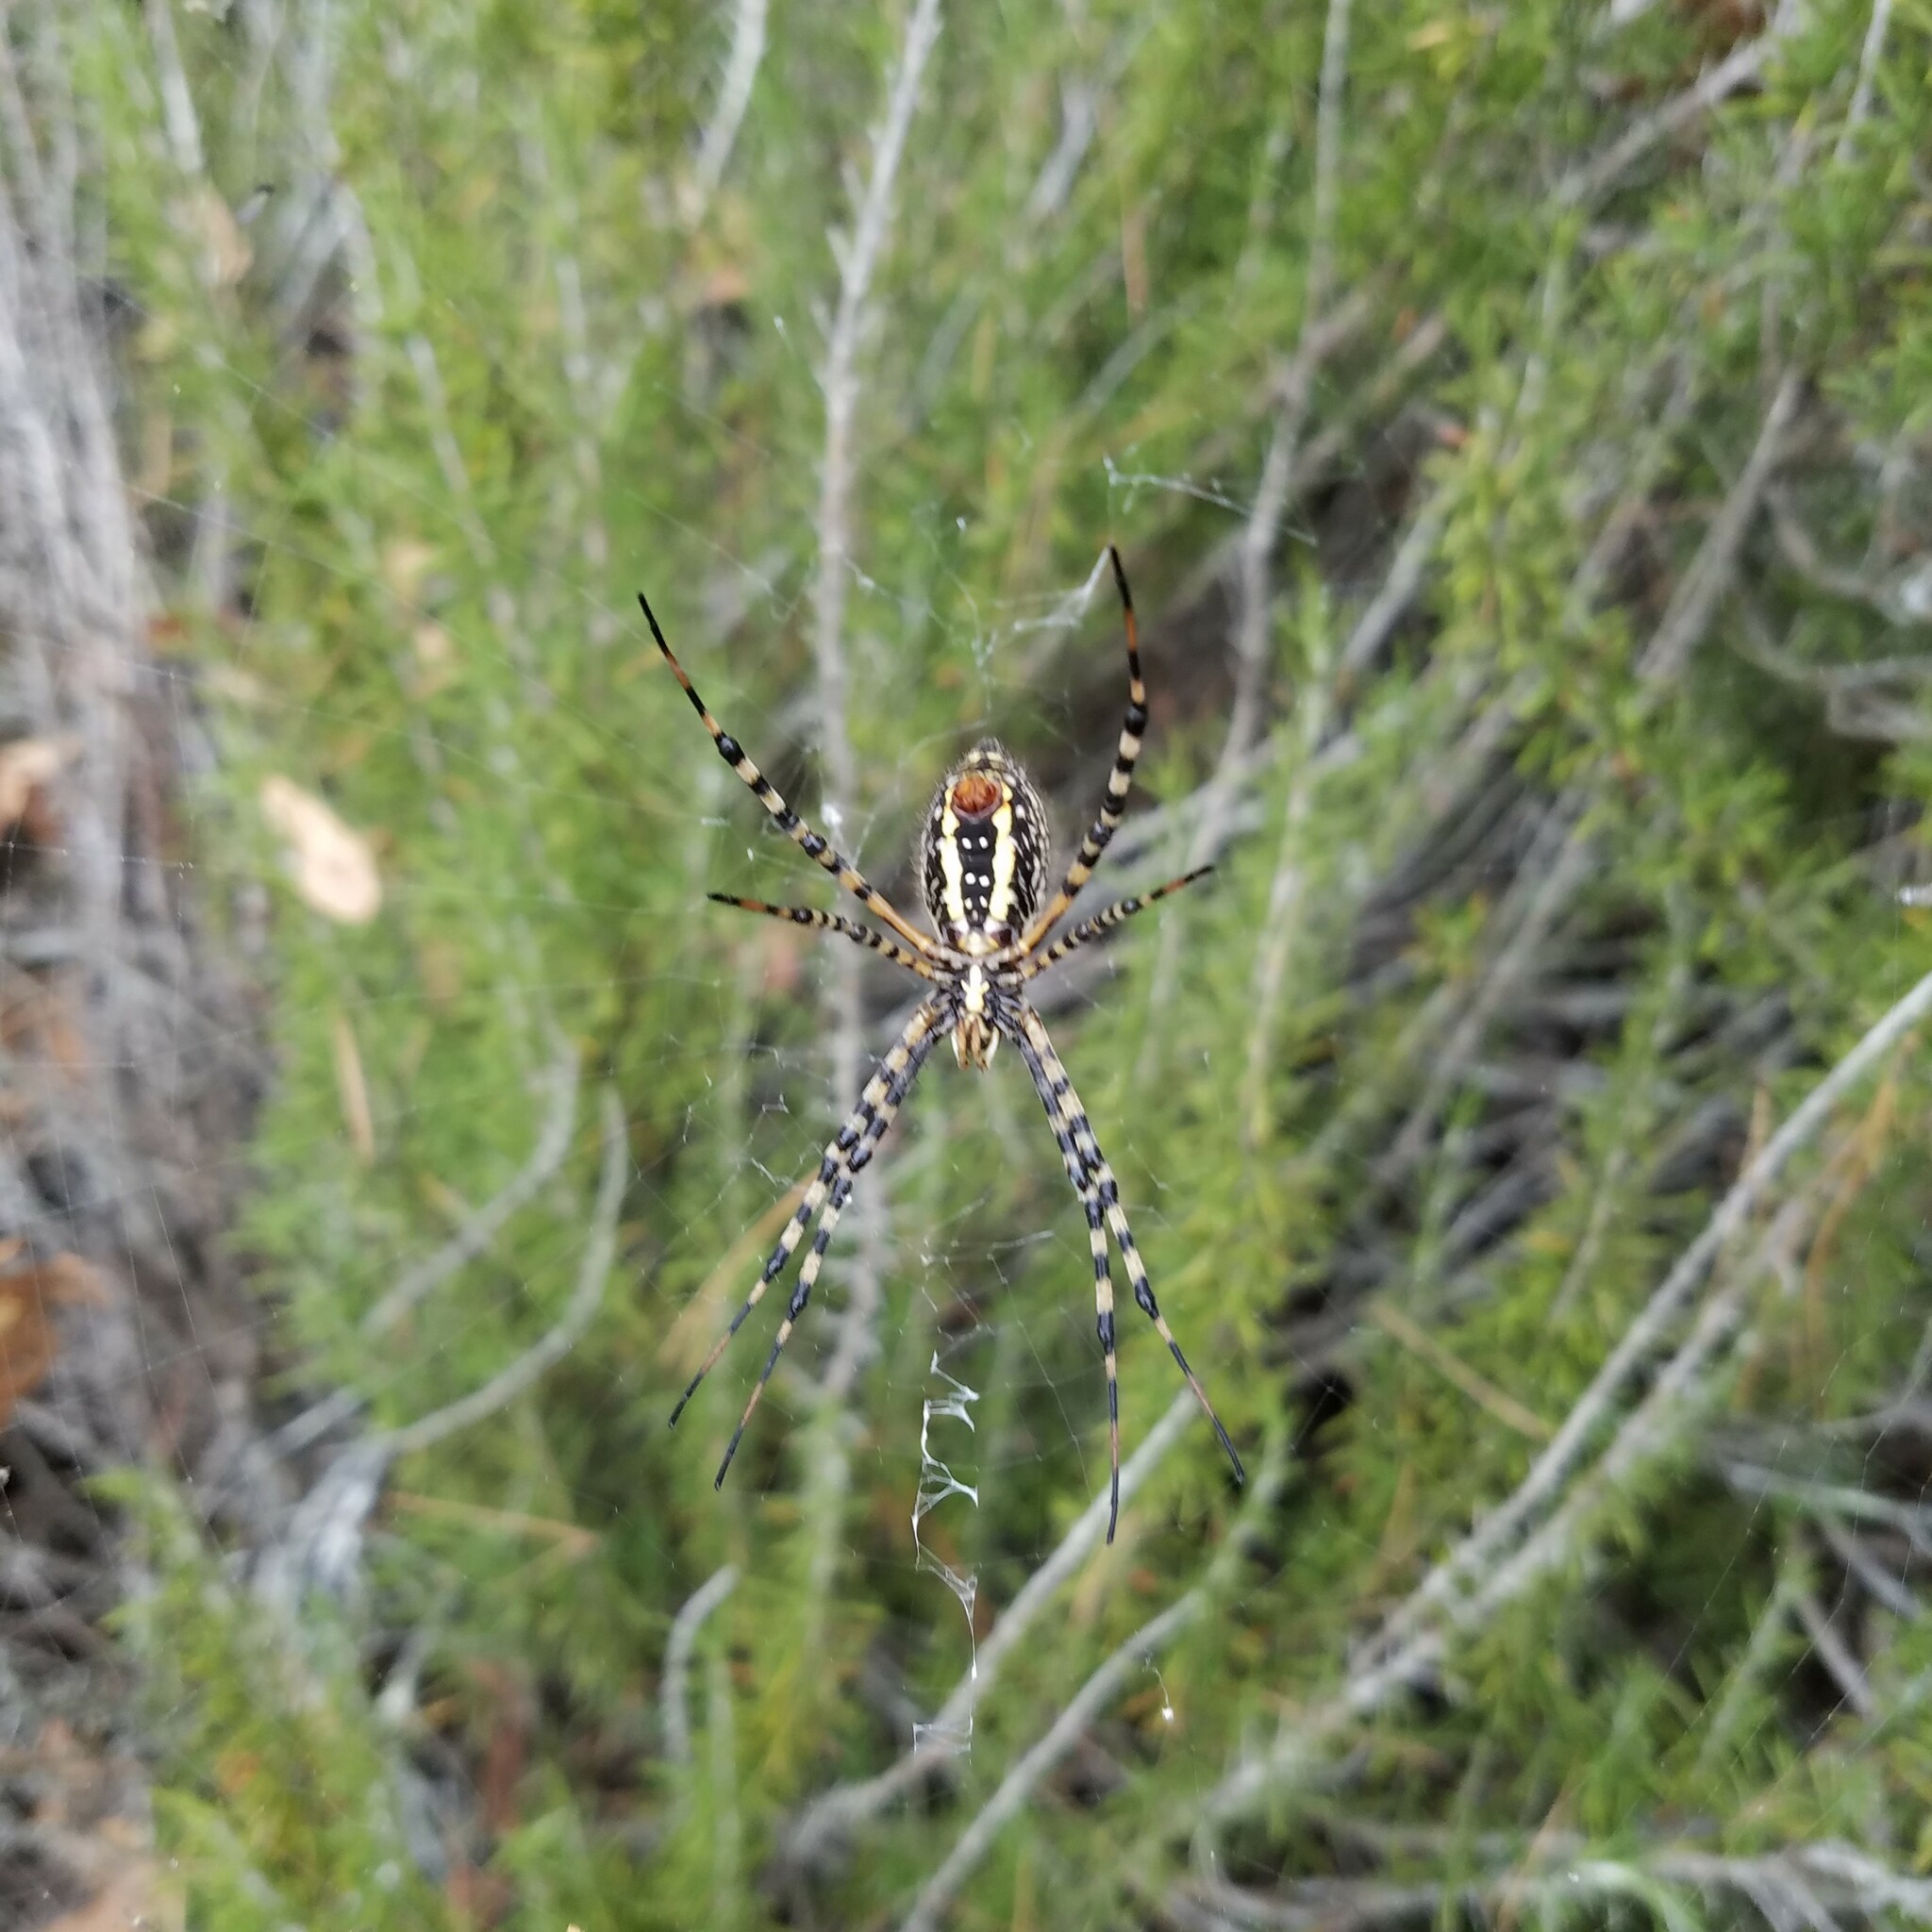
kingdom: Animalia
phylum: Arthropoda
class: Arachnida
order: Araneae
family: Araneidae
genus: Argiope
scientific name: Argiope trifasciata
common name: Banded garden spider
